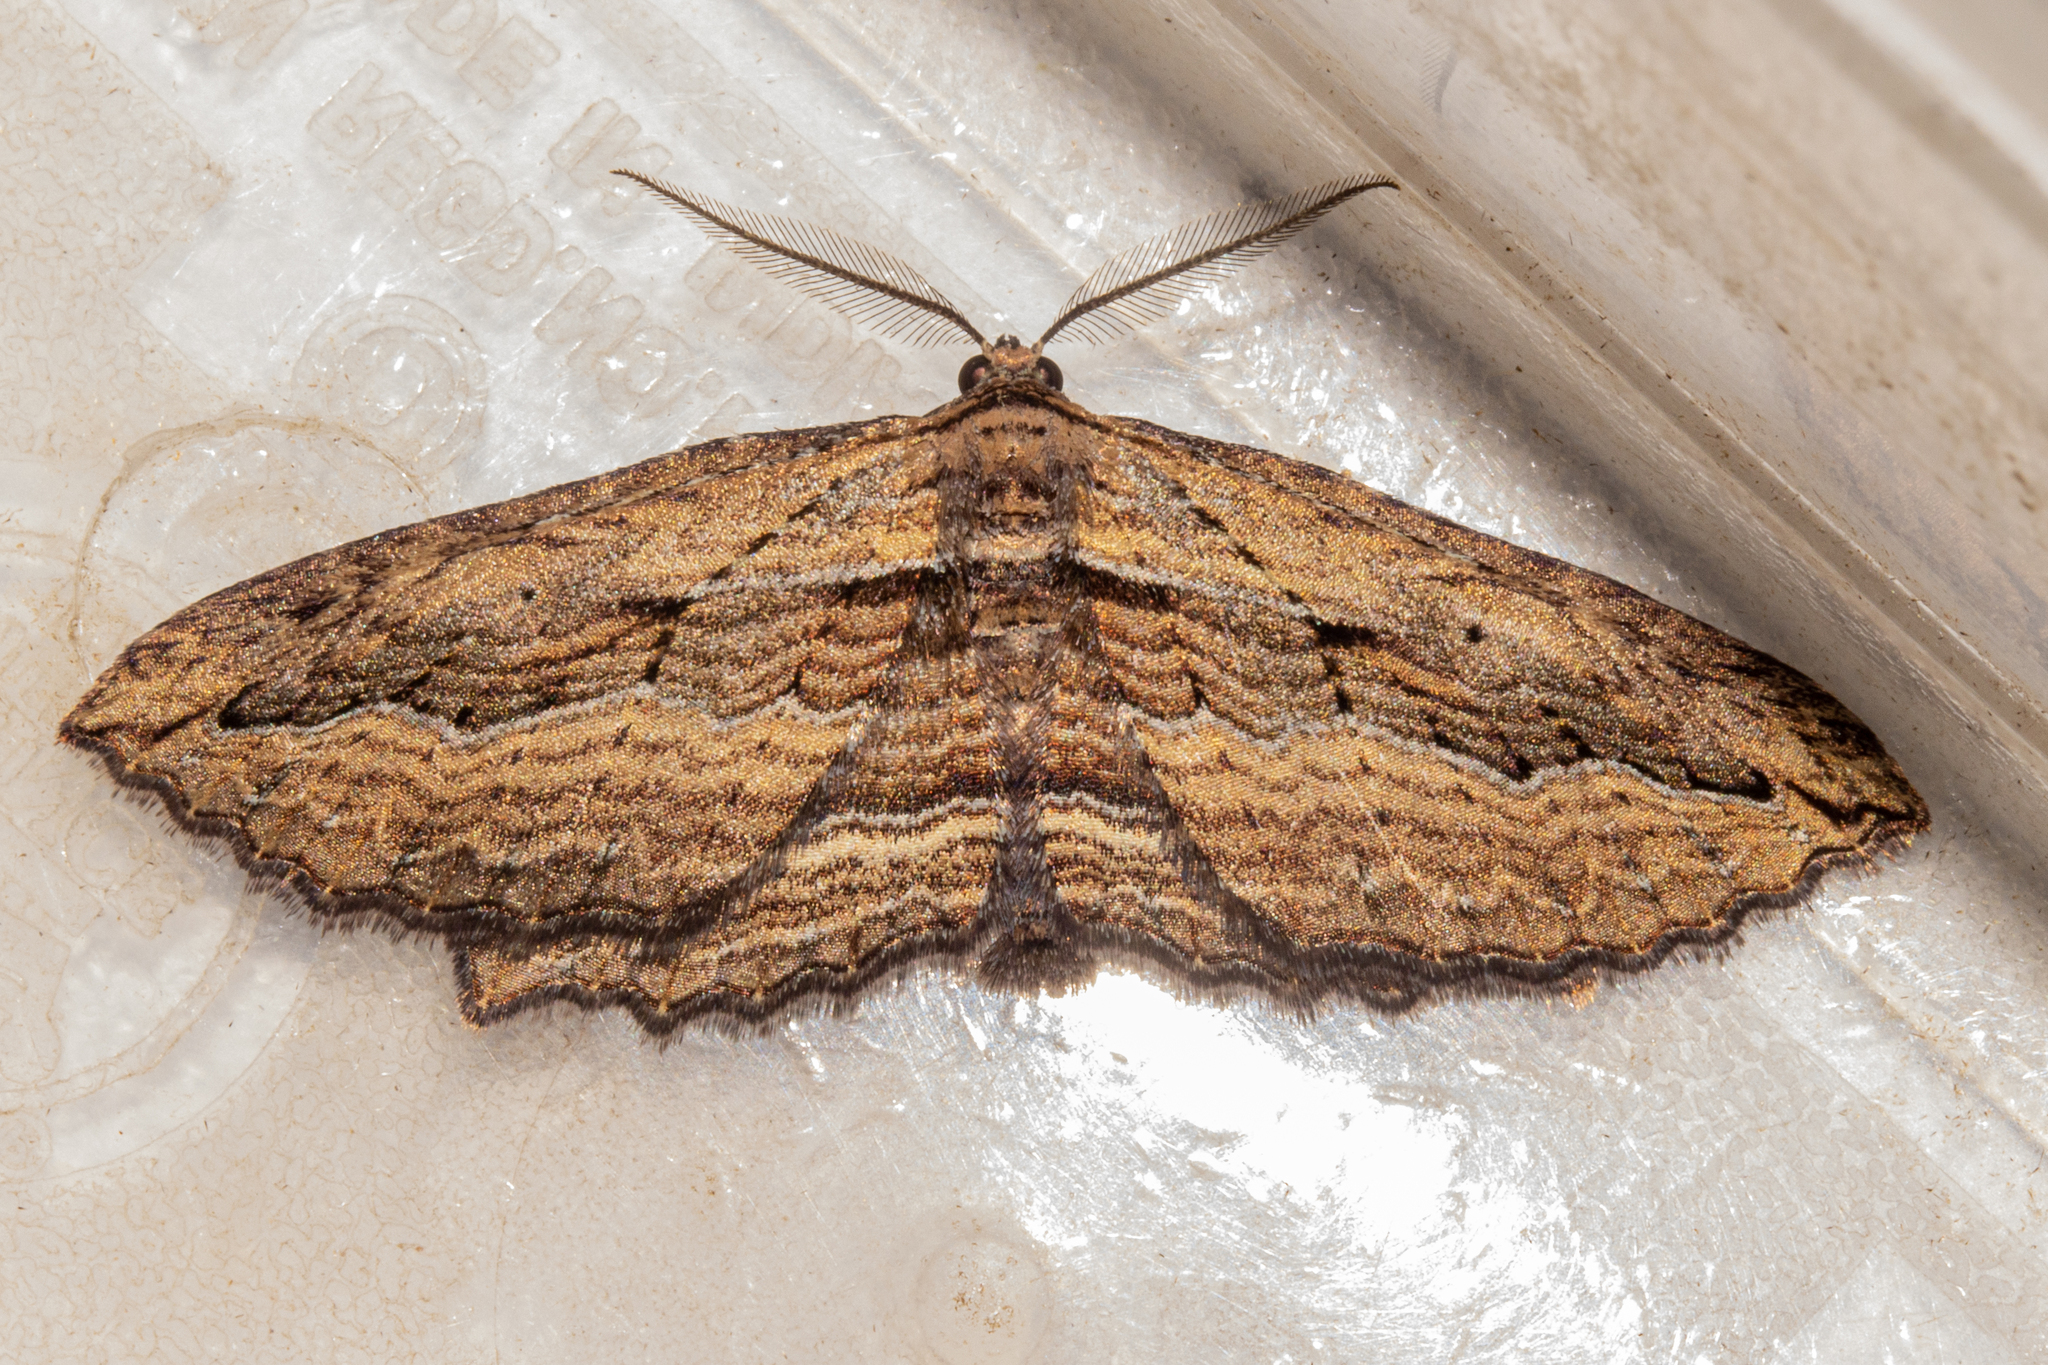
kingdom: Animalia
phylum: Arthropoda
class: Insecta
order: Lepidoptera
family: Geometridae
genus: Aponotoreas
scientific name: Aponotoreas dissimilis
